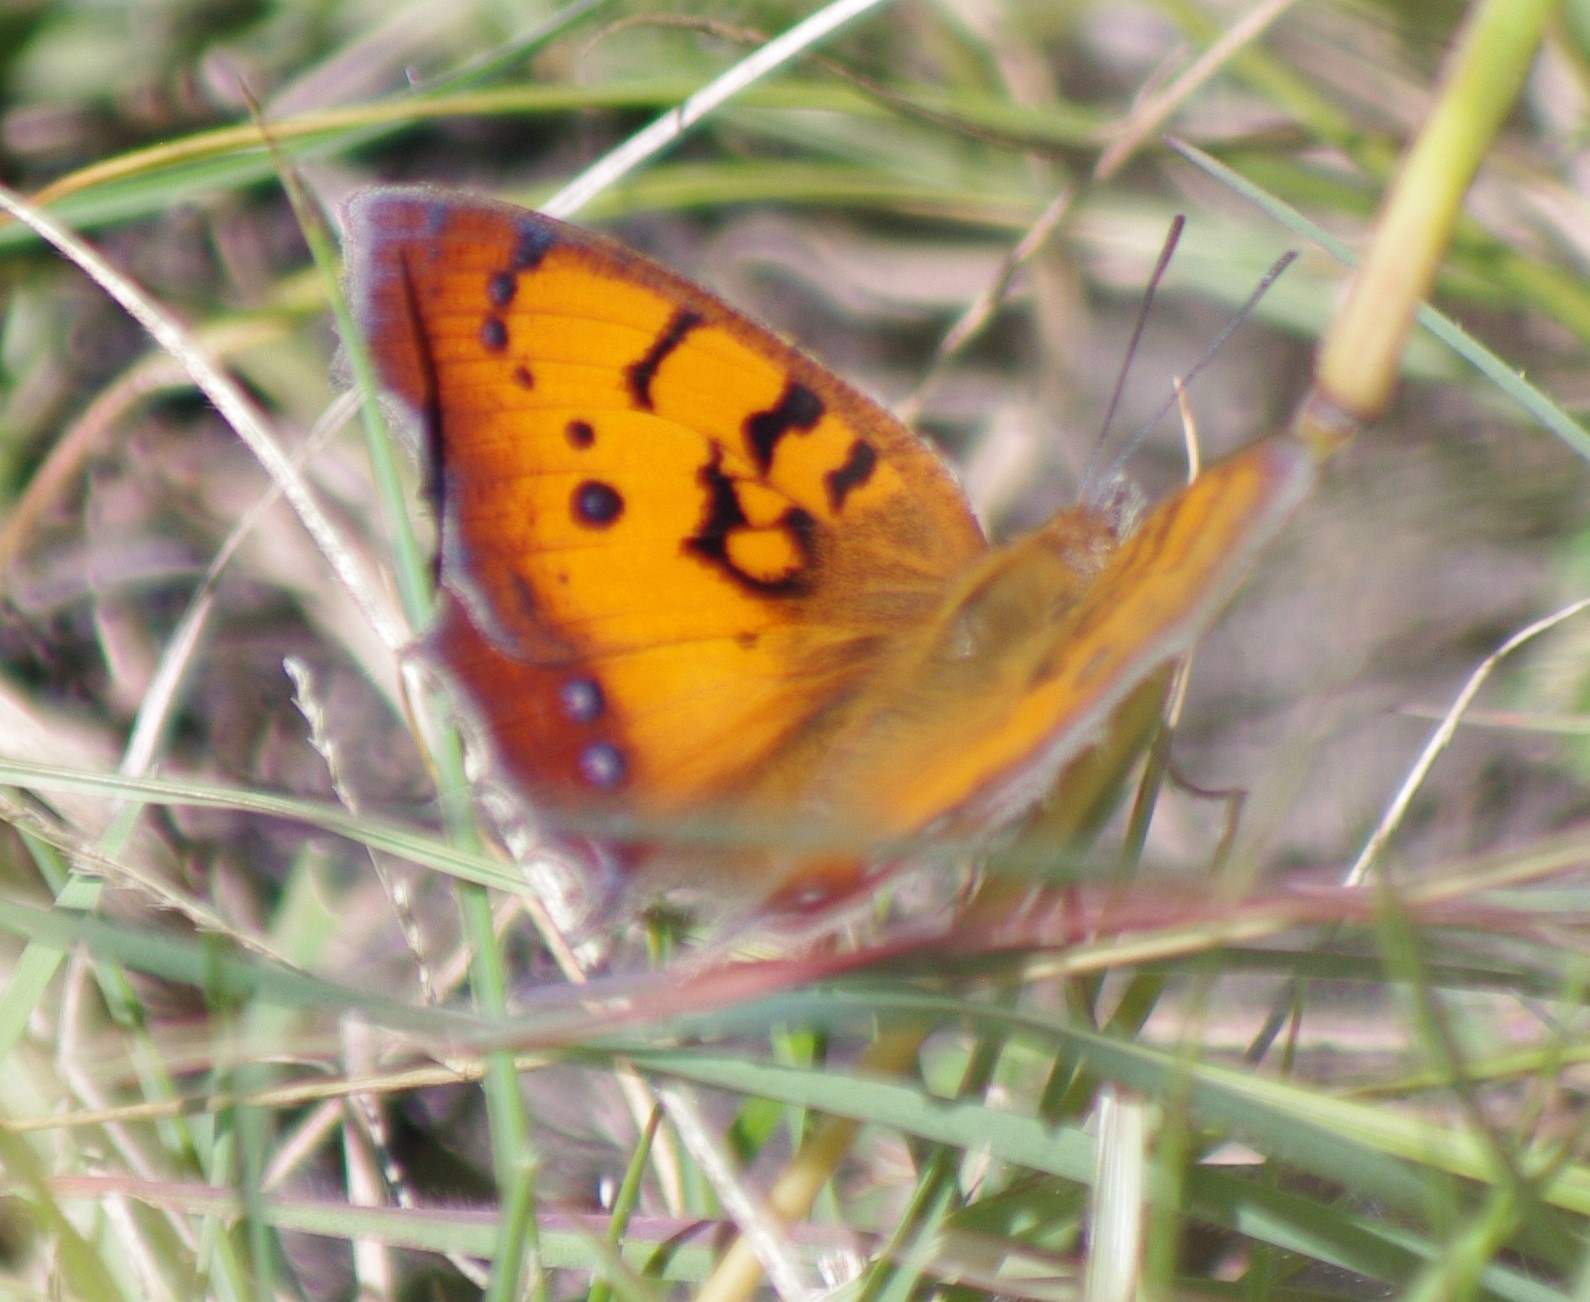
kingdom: Animalia
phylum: Arthropoda
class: Insecta
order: Lepidoptera
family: Nymphalidae
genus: Catacroptera
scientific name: Catacroptera cloanthe
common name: Pirate
